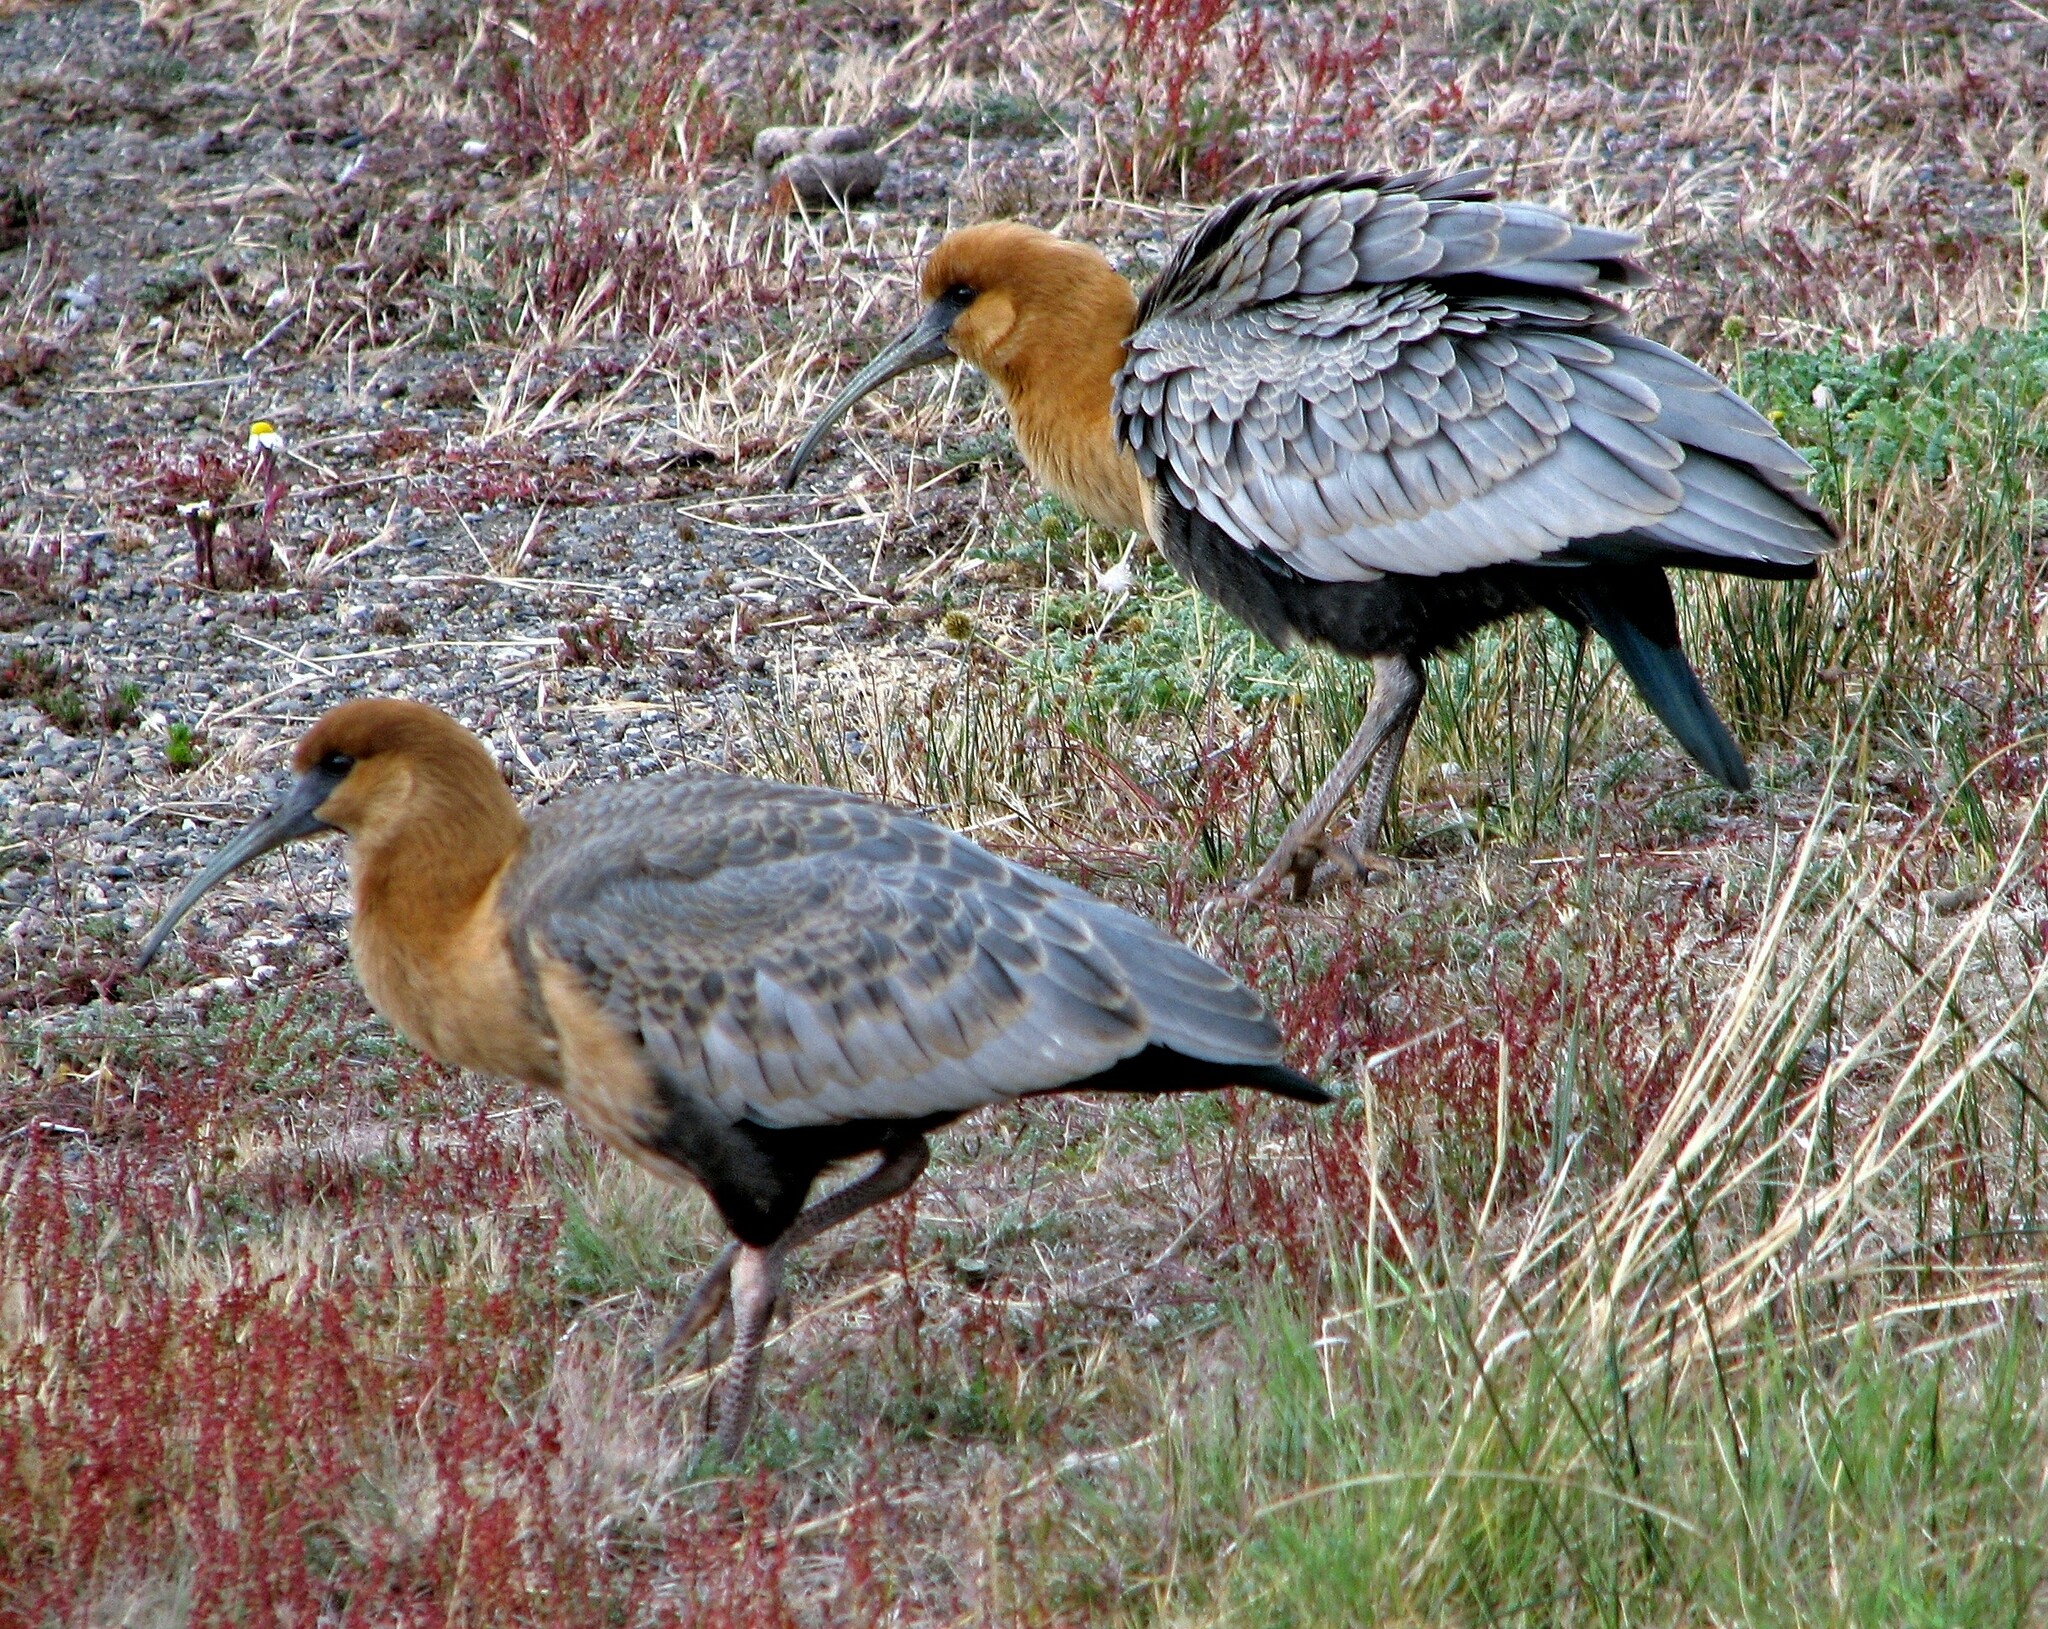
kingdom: Animalia
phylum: Chordata
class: Aves
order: Pelecaniformes
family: Threskiornithidae
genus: Theristicus
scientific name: Theristicus melanopis
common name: Black-faced ibis
